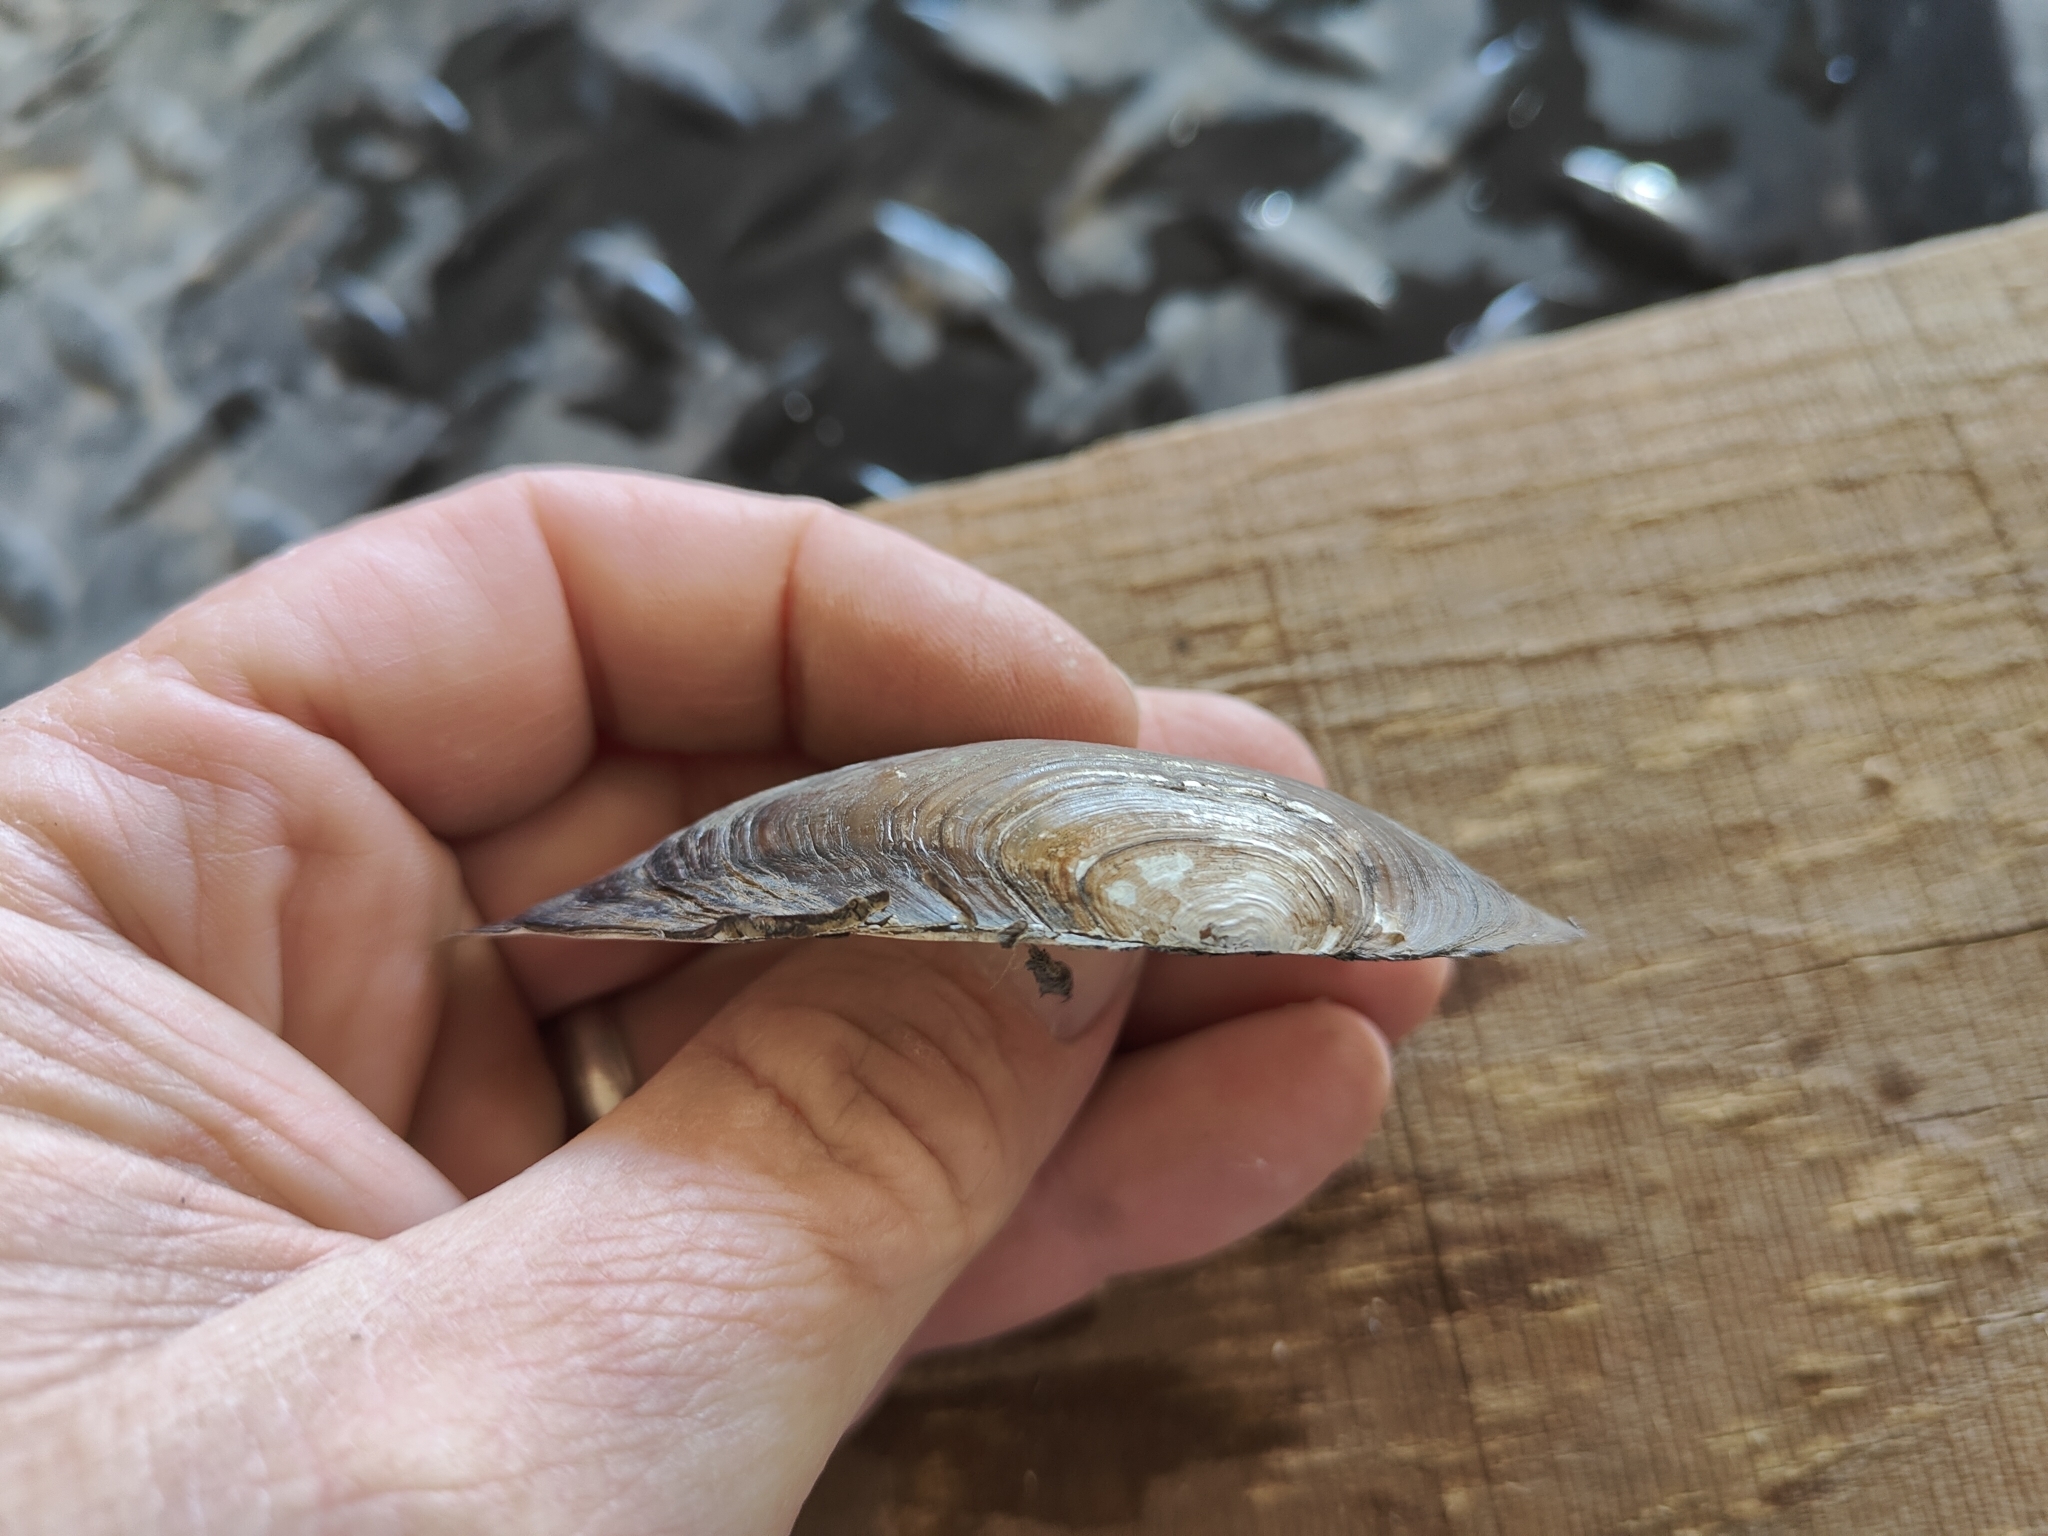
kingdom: Animalia
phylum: Mollusca
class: Bivalvia
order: Unionida
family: Unionidae
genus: Utterbackia
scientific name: Utterbackia imbecillis
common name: Paper pondshell
